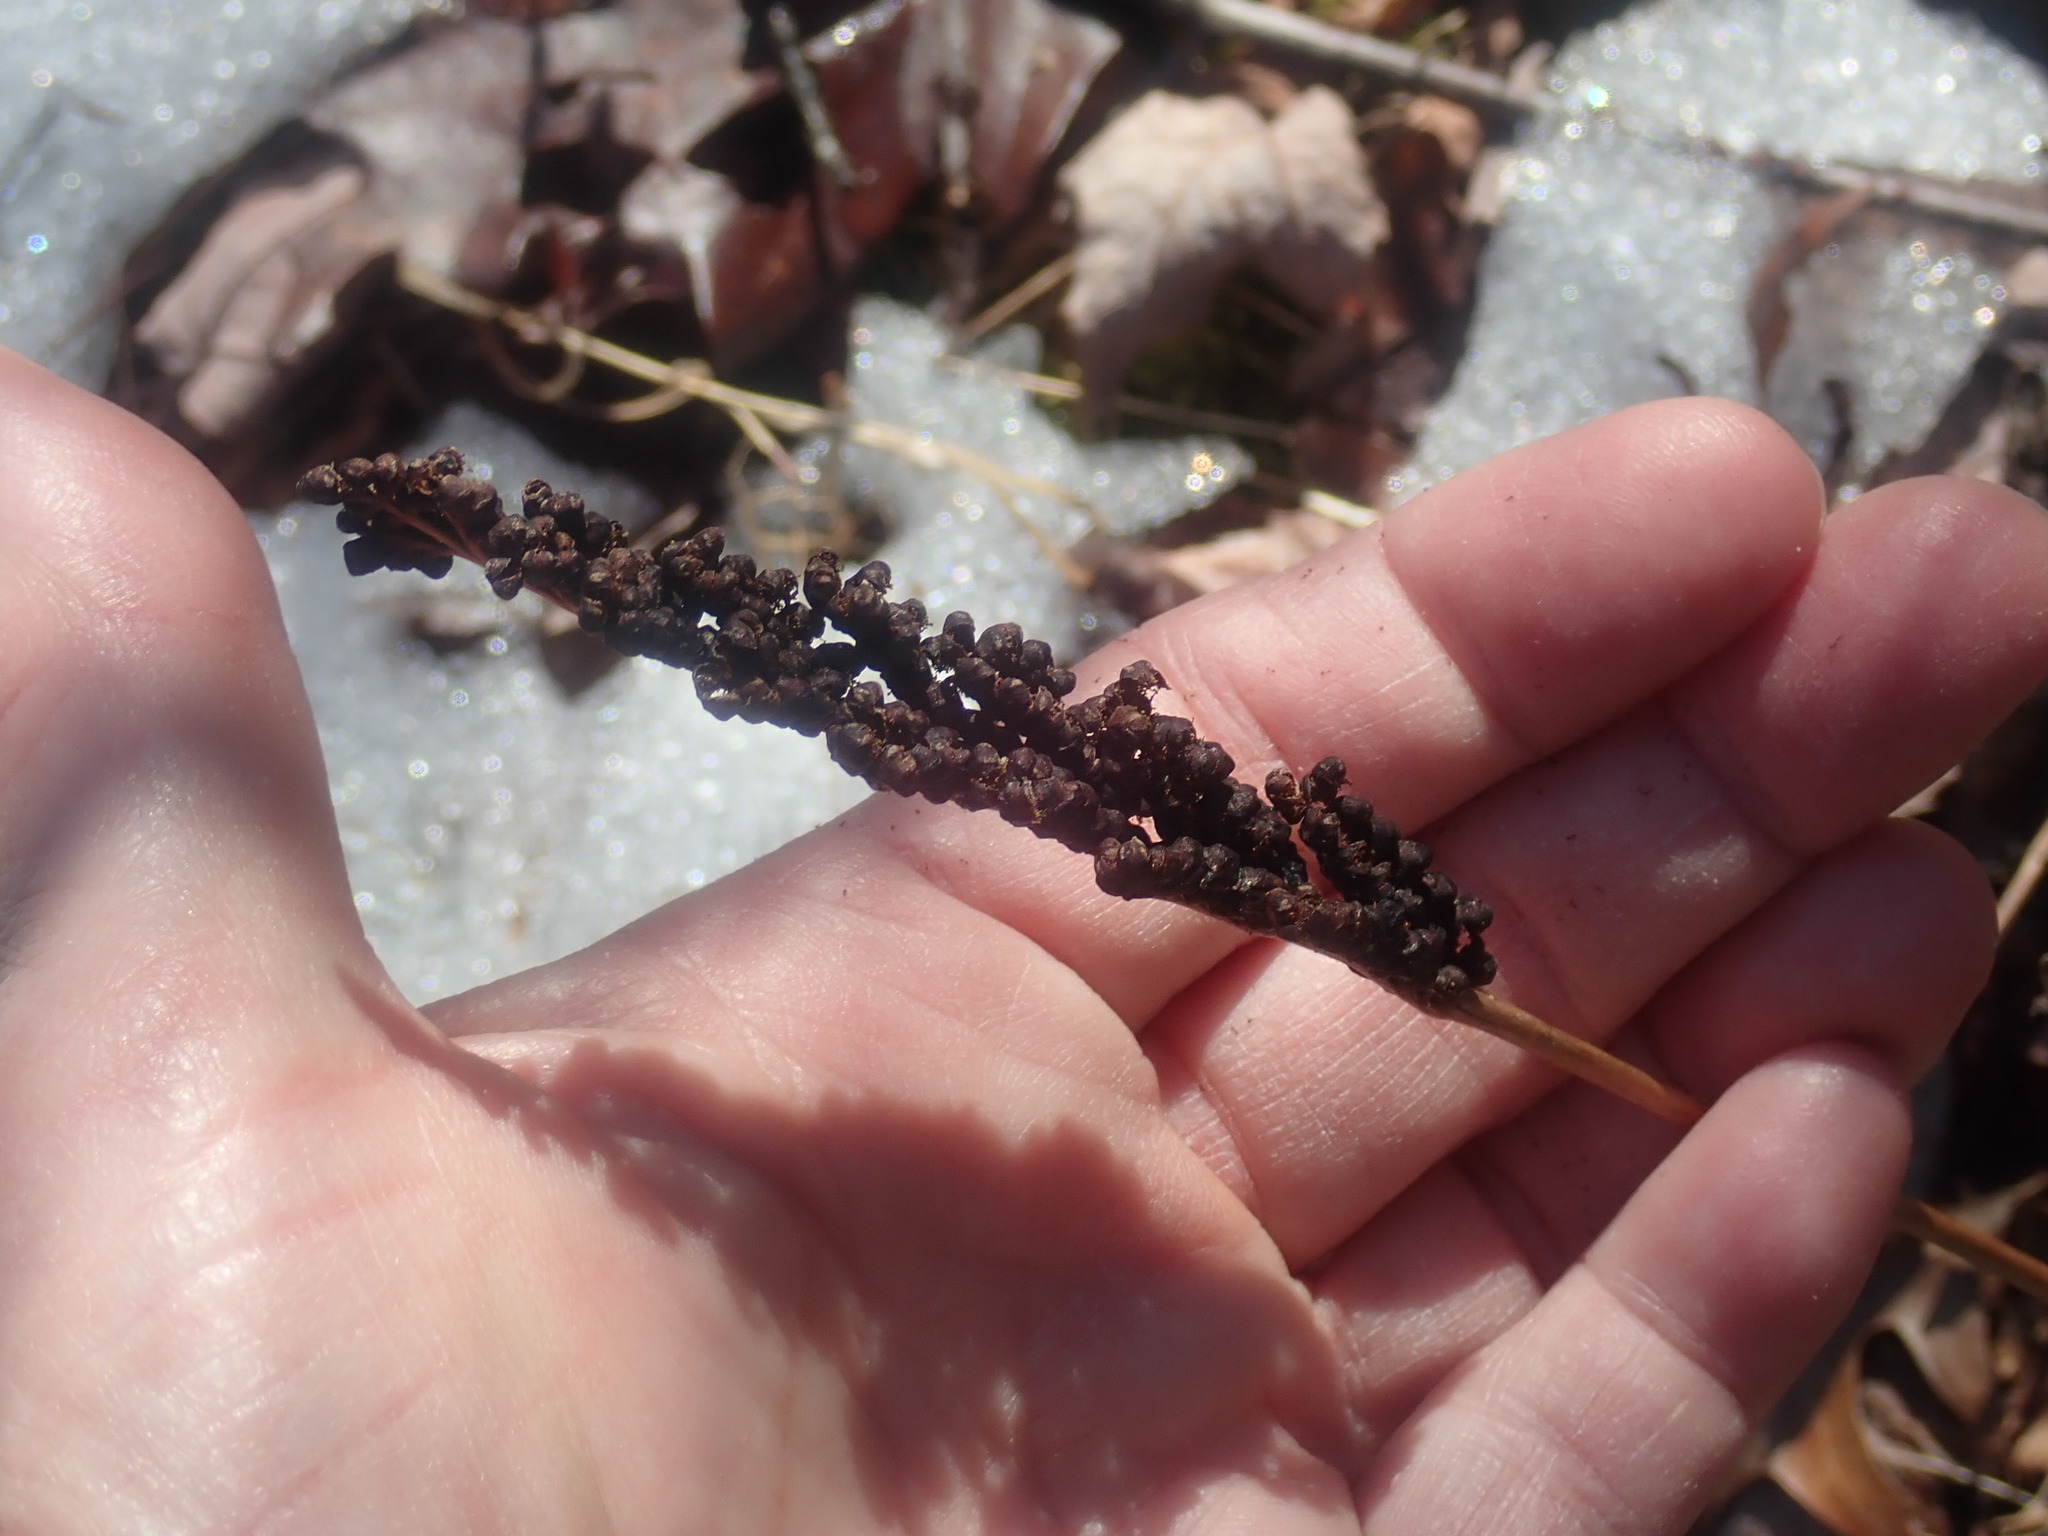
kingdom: Plantae
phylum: Tracheophyta
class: Polypodiopsida
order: Polypodiales
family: Onocleaceae
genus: Onoclea
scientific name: Onoclea sensibilis
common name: Sensitive fern
